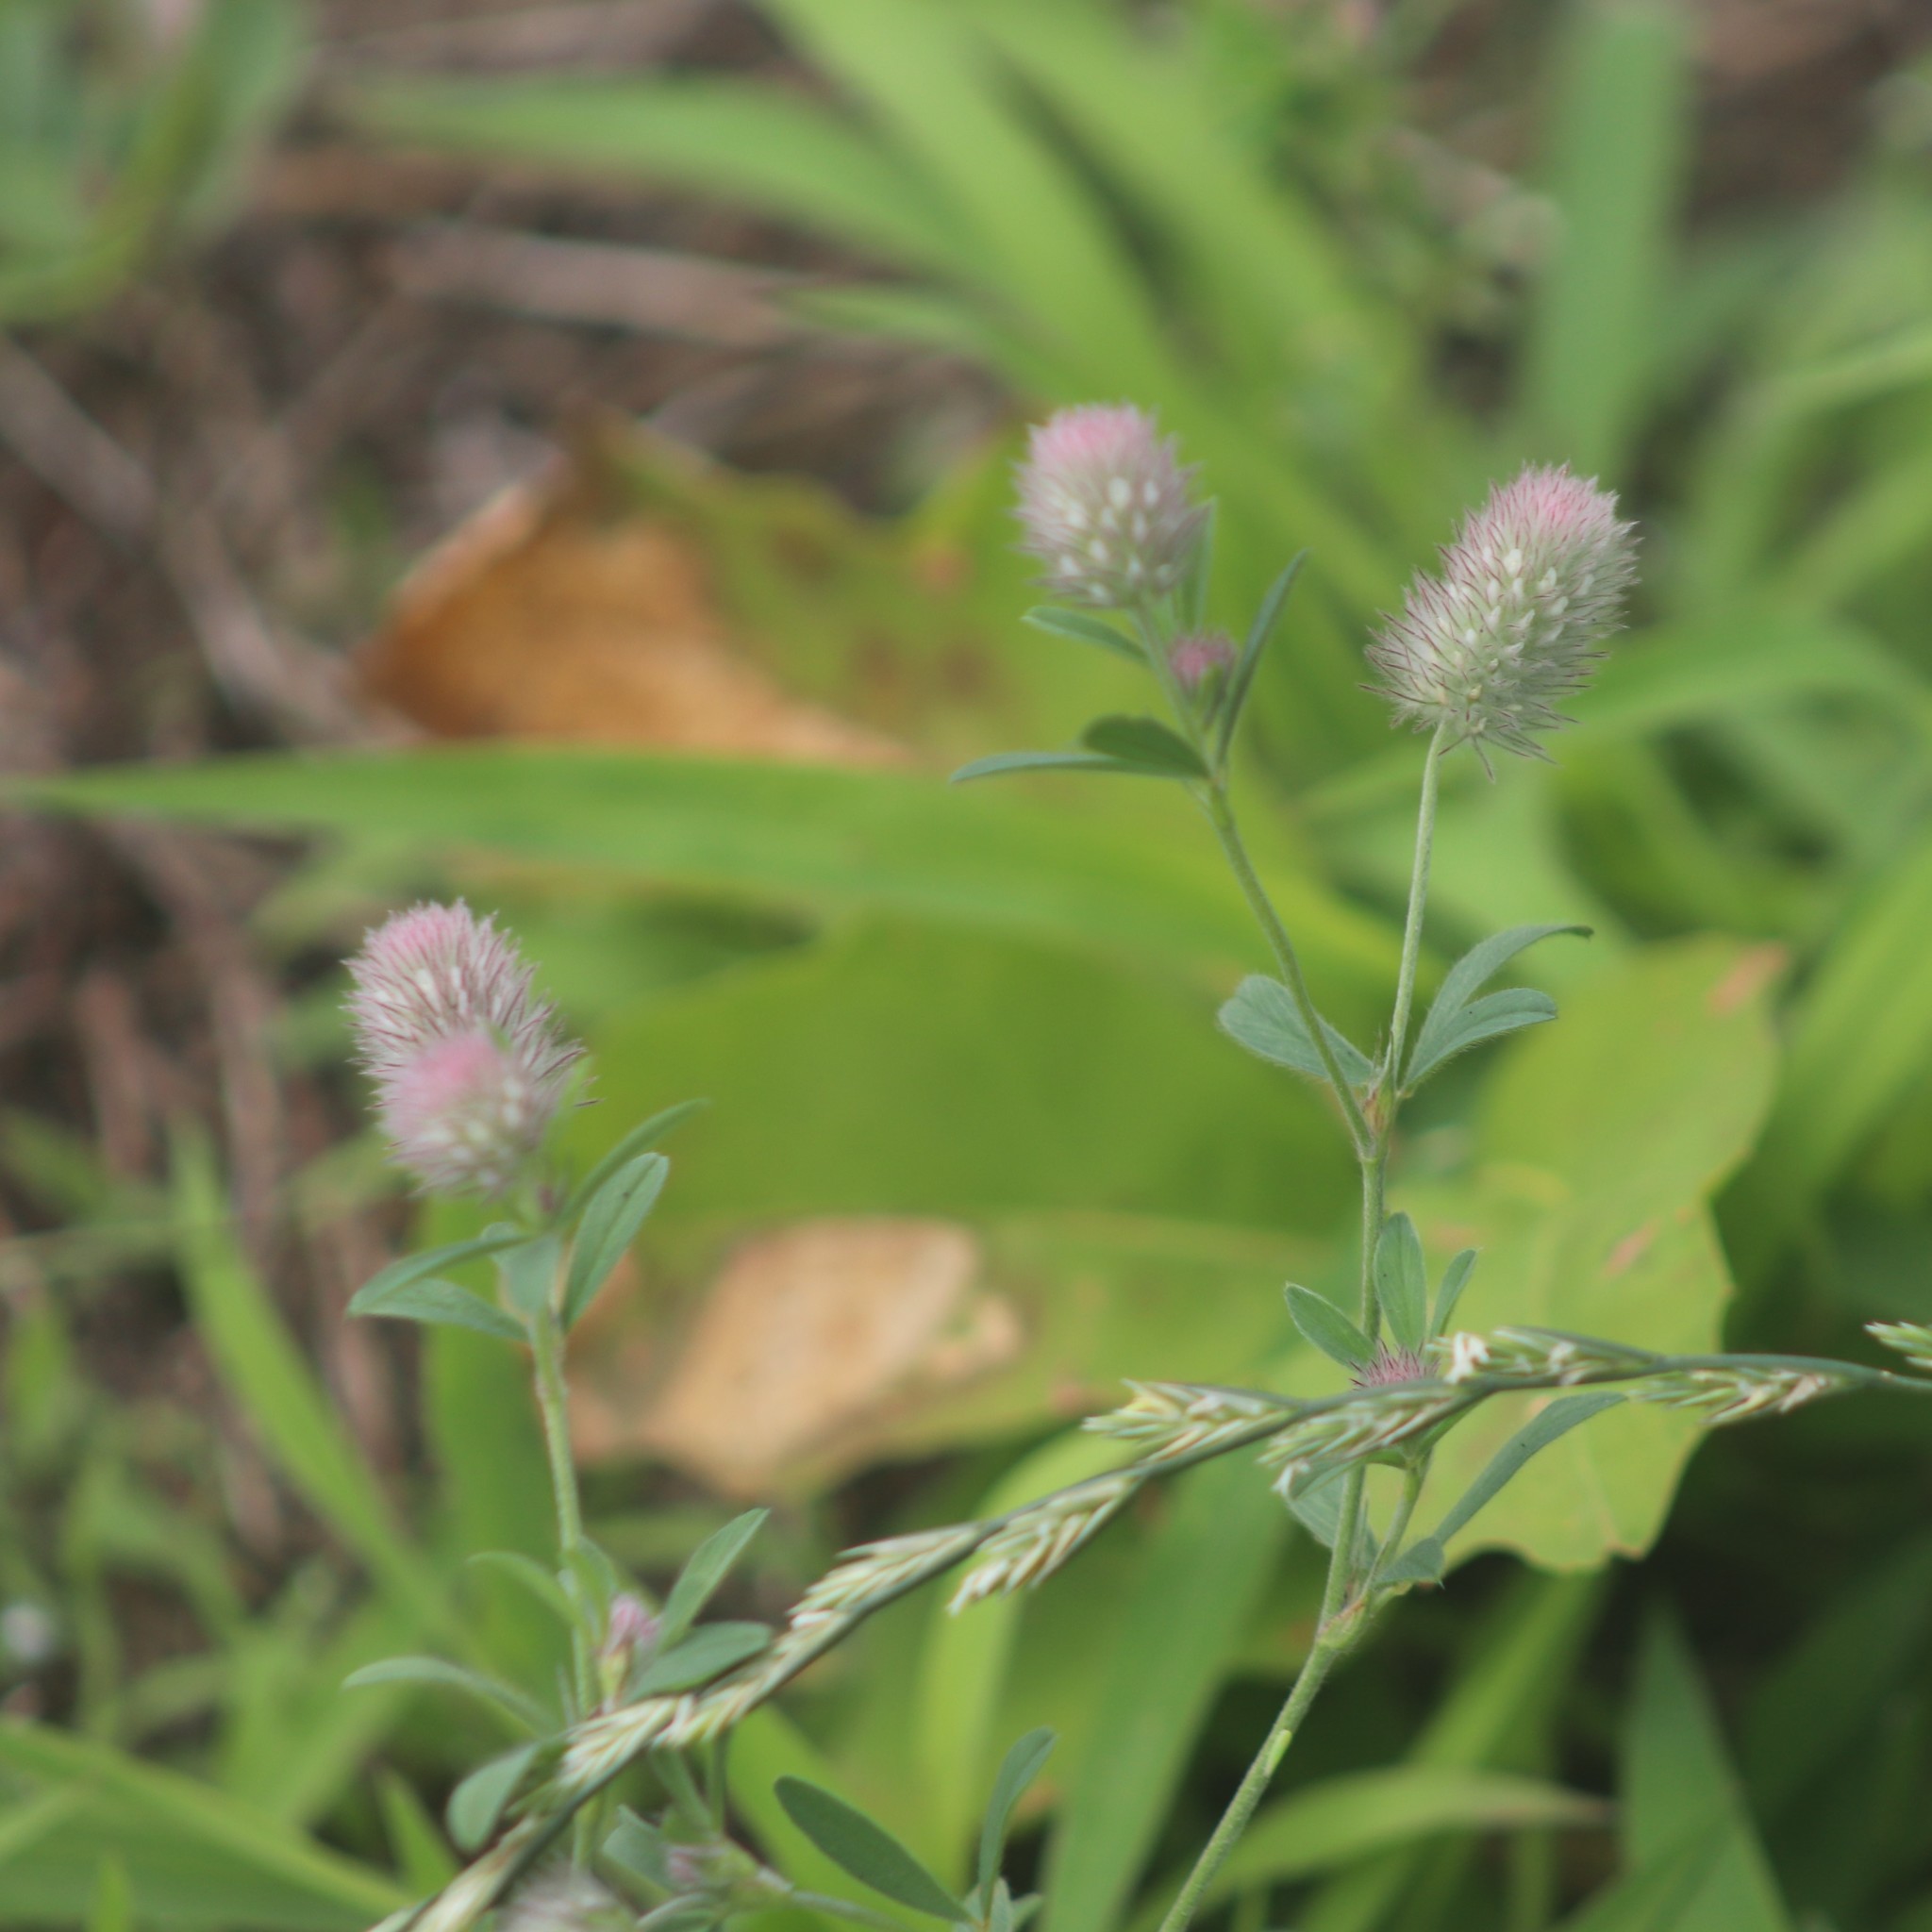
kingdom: Plantae
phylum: Tracheophyta
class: Magnoliopsida
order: Fabales
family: Fabaceae
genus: Trifolium
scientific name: Trifolium arvense
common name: Hare's-foot clover
